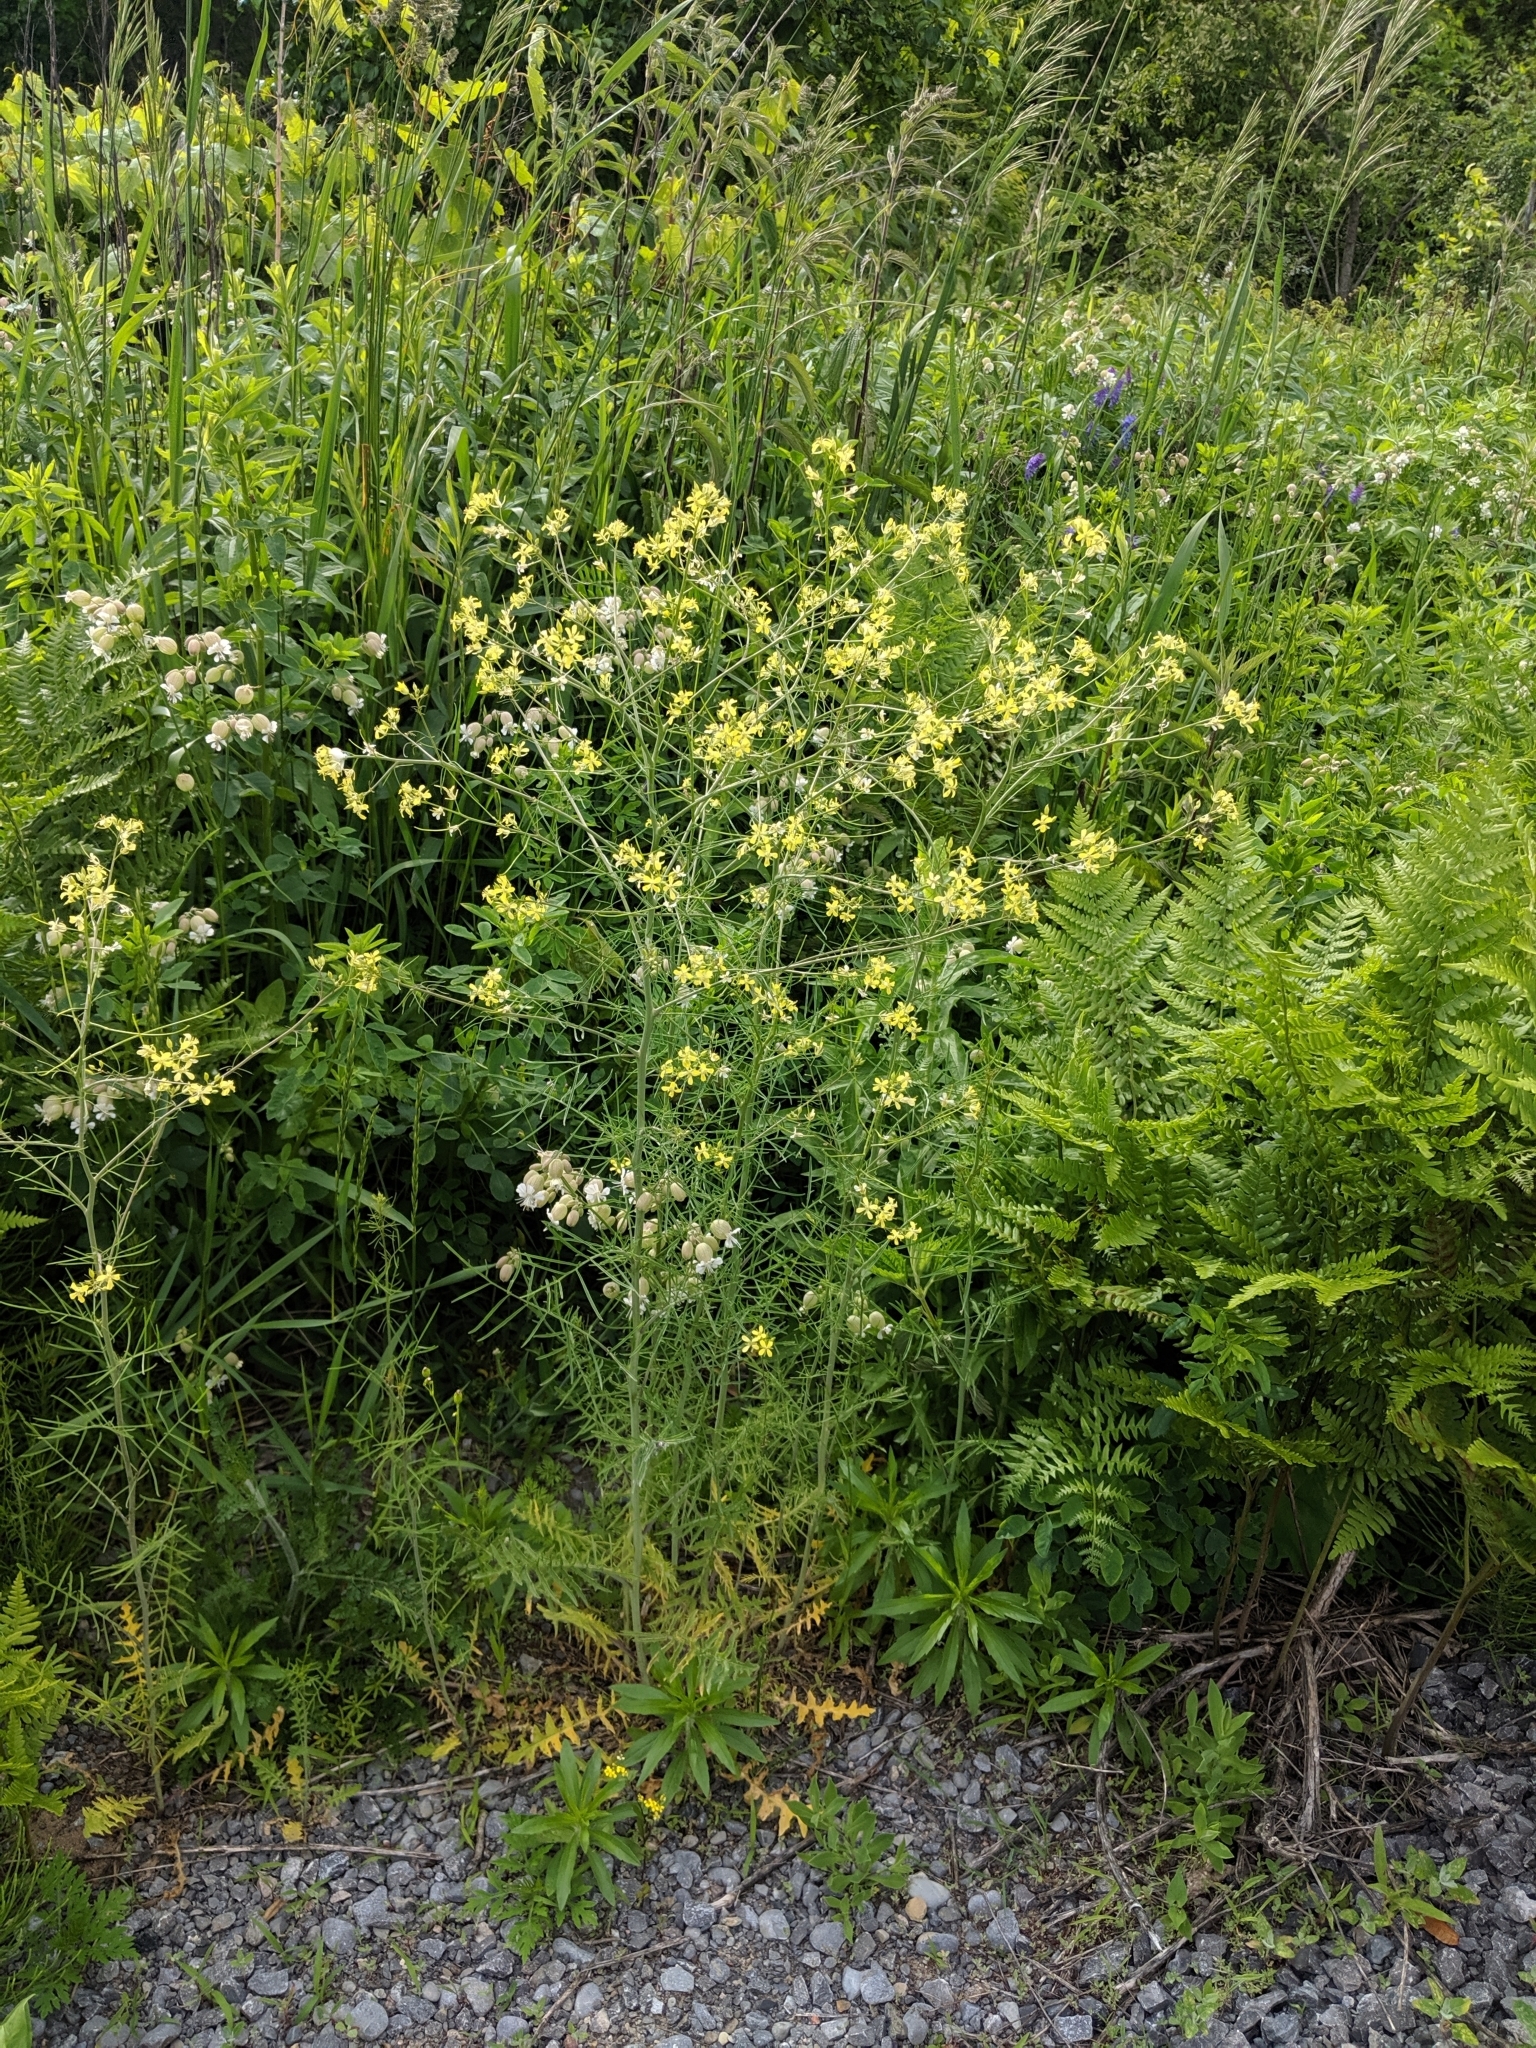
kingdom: Plantae
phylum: Tracheophyta
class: Magnoliopsida
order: Brassicales
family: Brassicaceae
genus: Sisymbrium
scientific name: Sisymbrium altissimum
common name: Tall rocket
